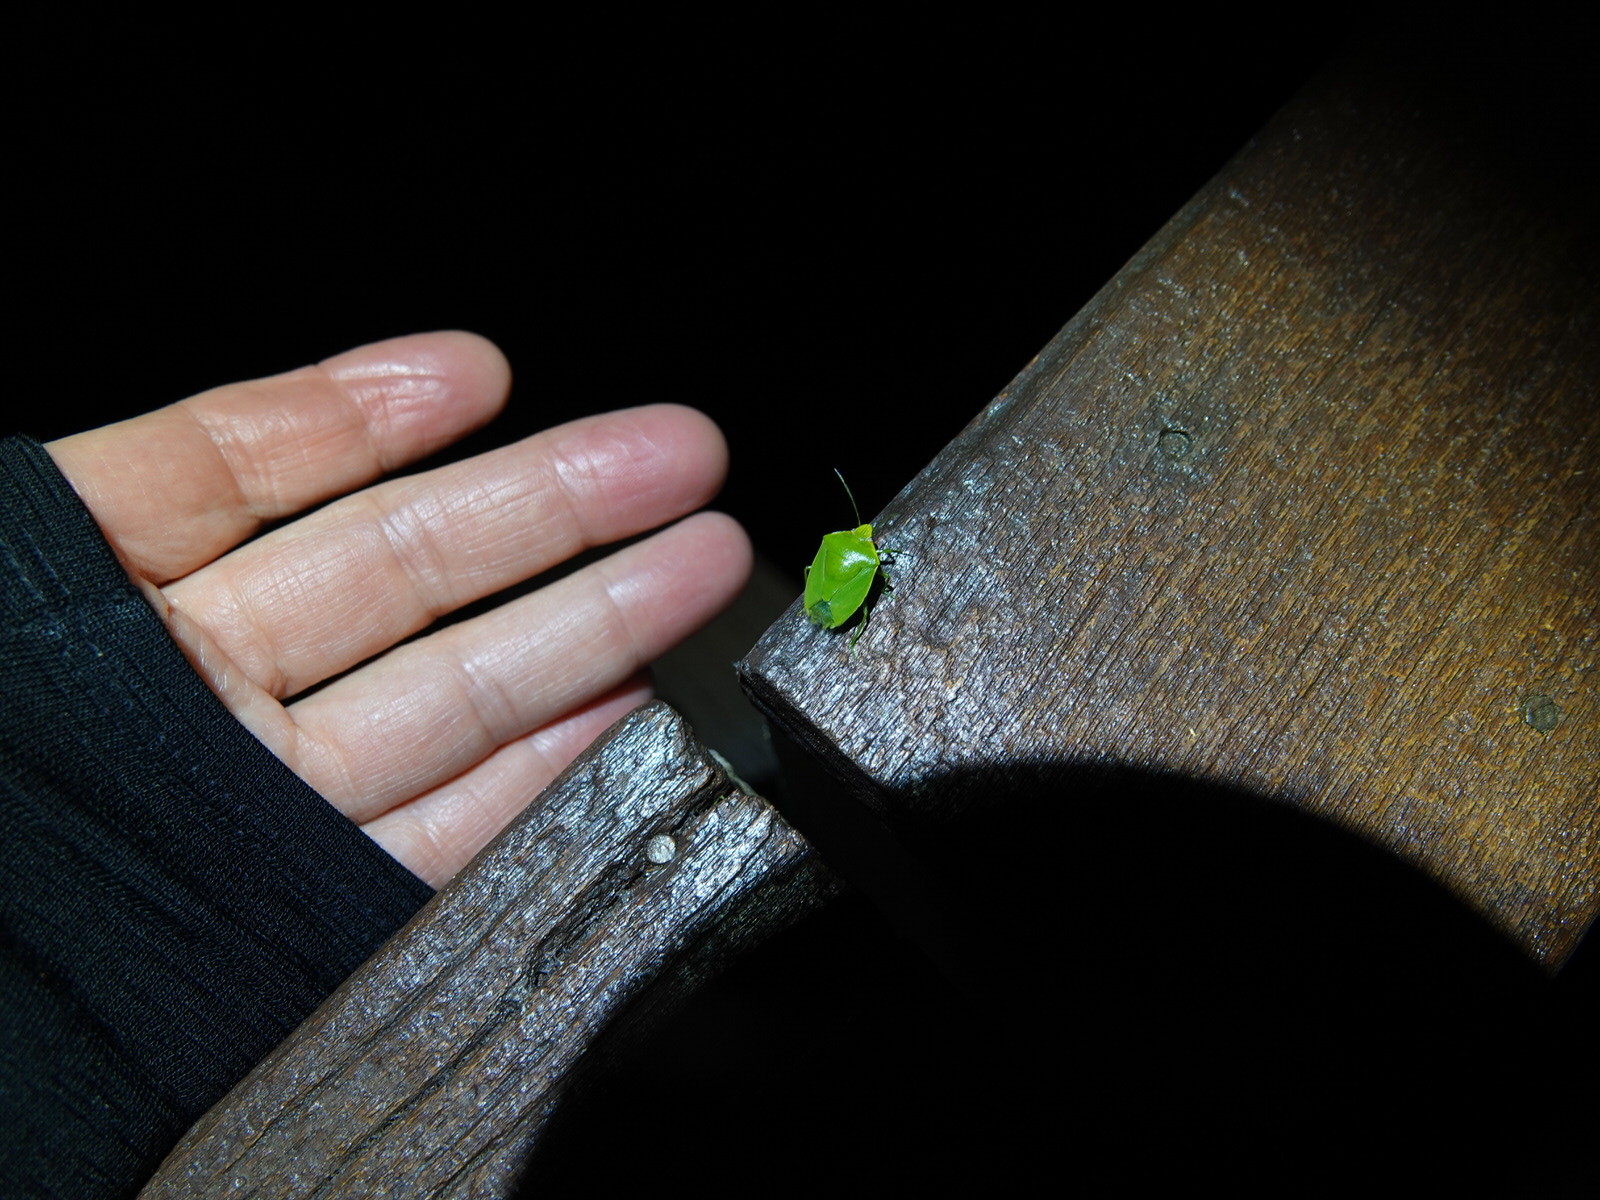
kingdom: Animalia
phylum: Arthropoda
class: Insecta
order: Hemiptera
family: Pentatomidae
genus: Glaucias
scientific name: Glaucias amyota
